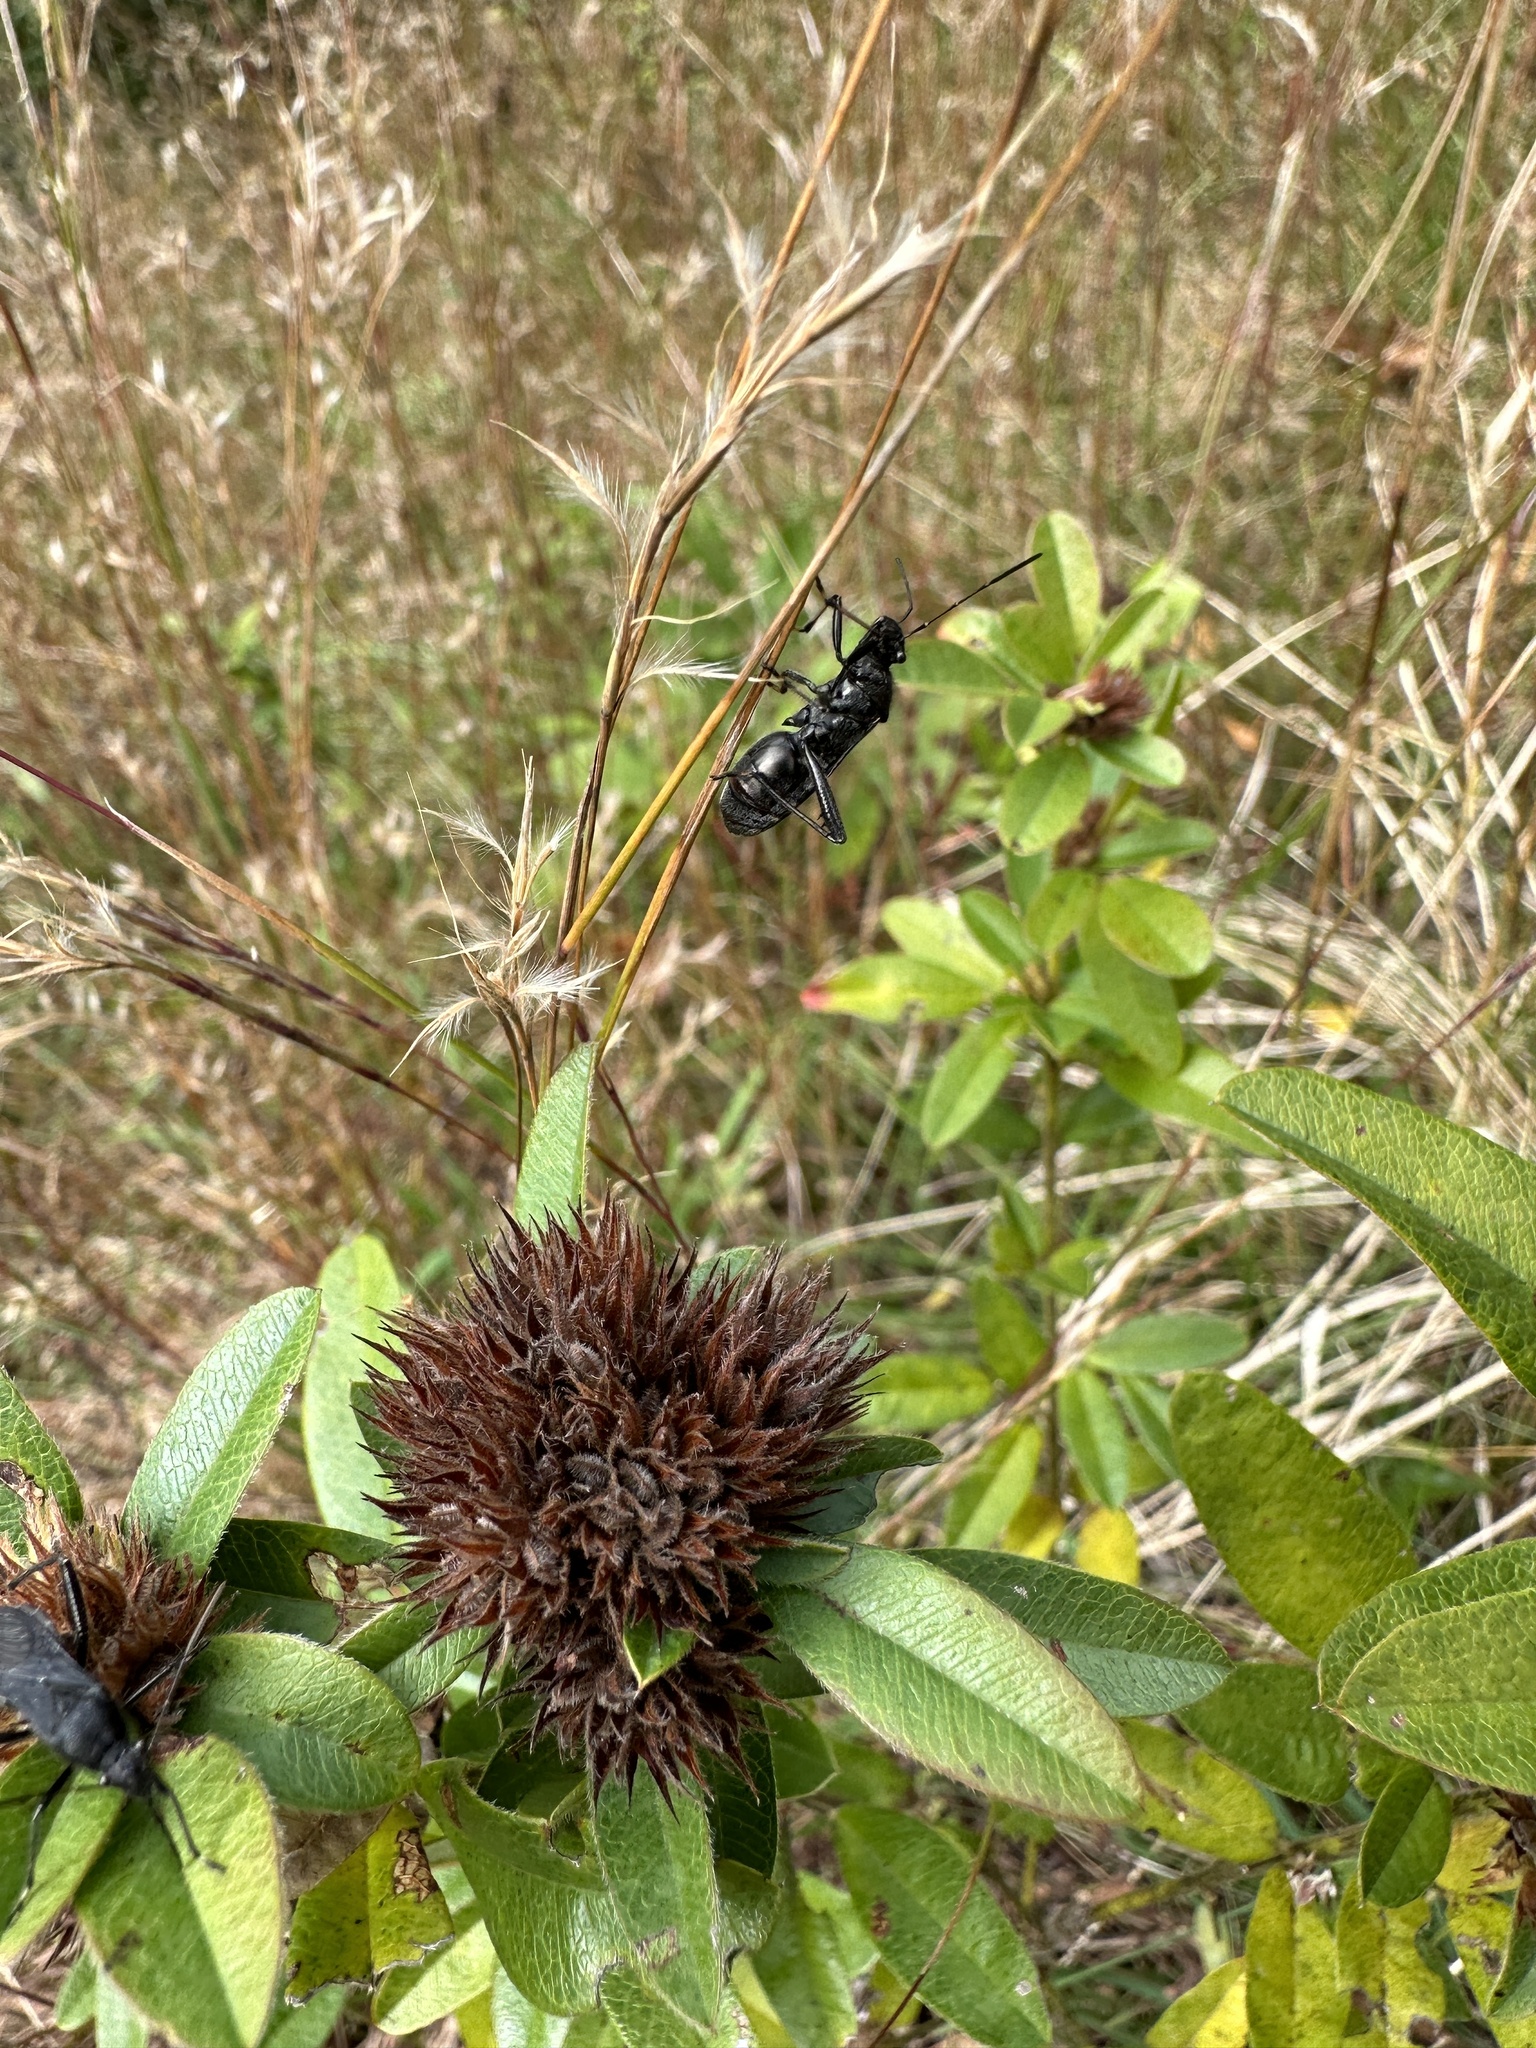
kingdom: Animalia
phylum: Arthropoda
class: Insecta
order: Hemiptera
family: Alydidae
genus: Alydus
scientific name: Alydus eurinus
